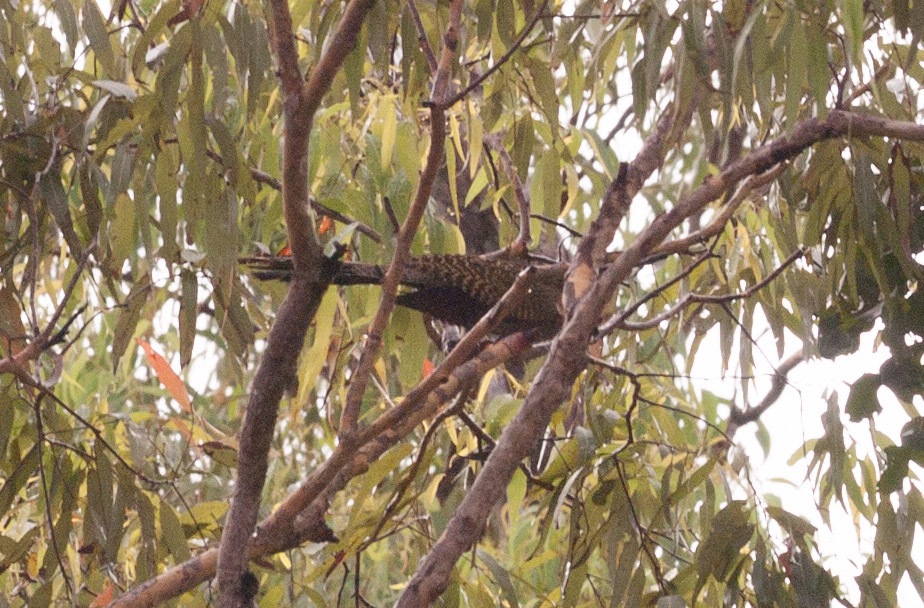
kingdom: Animalia
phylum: Chordata
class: Aves
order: Cuculiformes
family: Cuculidae
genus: Centropus
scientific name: Centropus phasianinus
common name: Pheasant coucal
